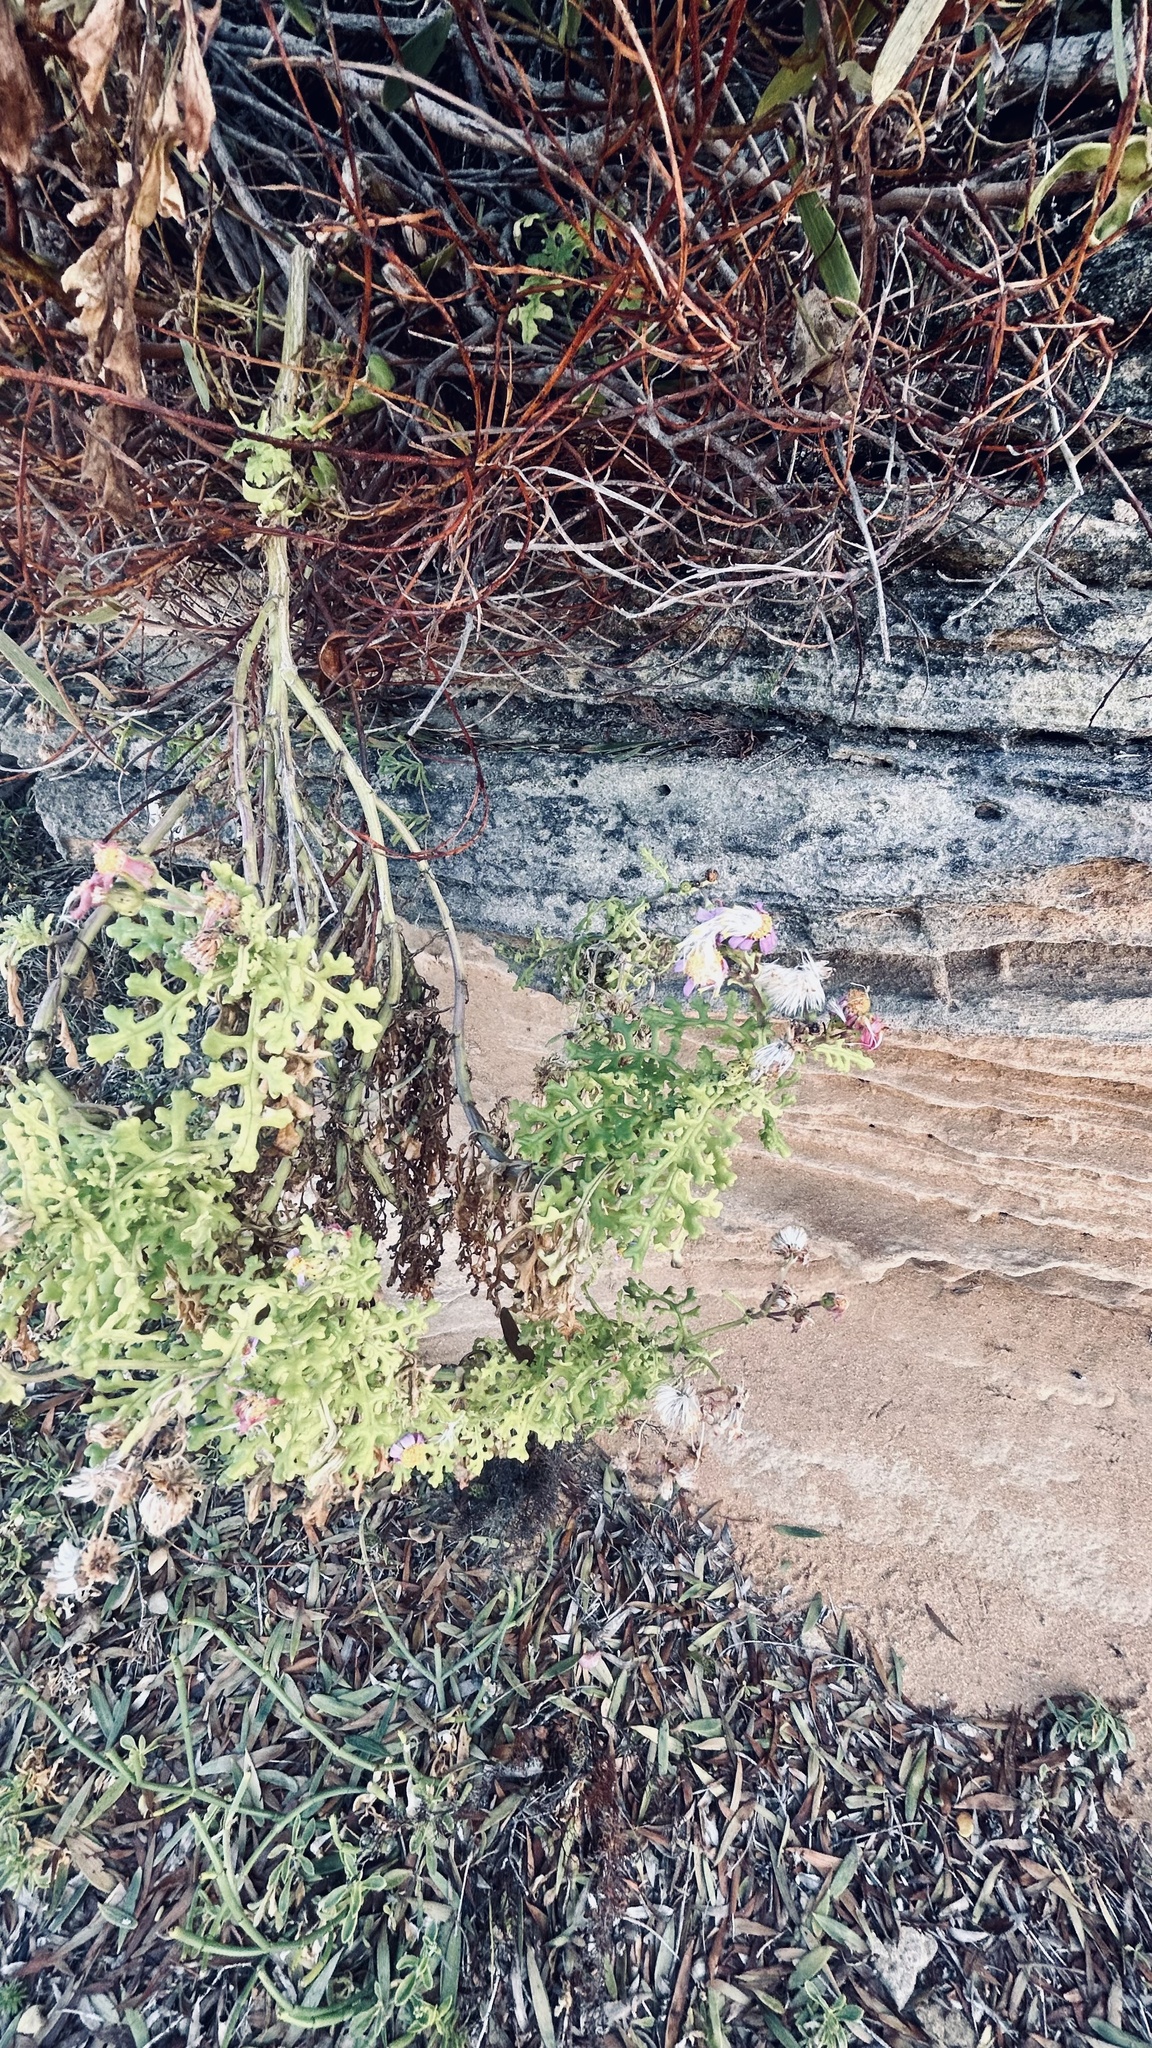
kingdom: Plantae
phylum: Tracheophyta
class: Magnoliopsida
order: Asterales
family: Asteraceae
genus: Senecio
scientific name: Senecio elegans
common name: Purple groundsel
